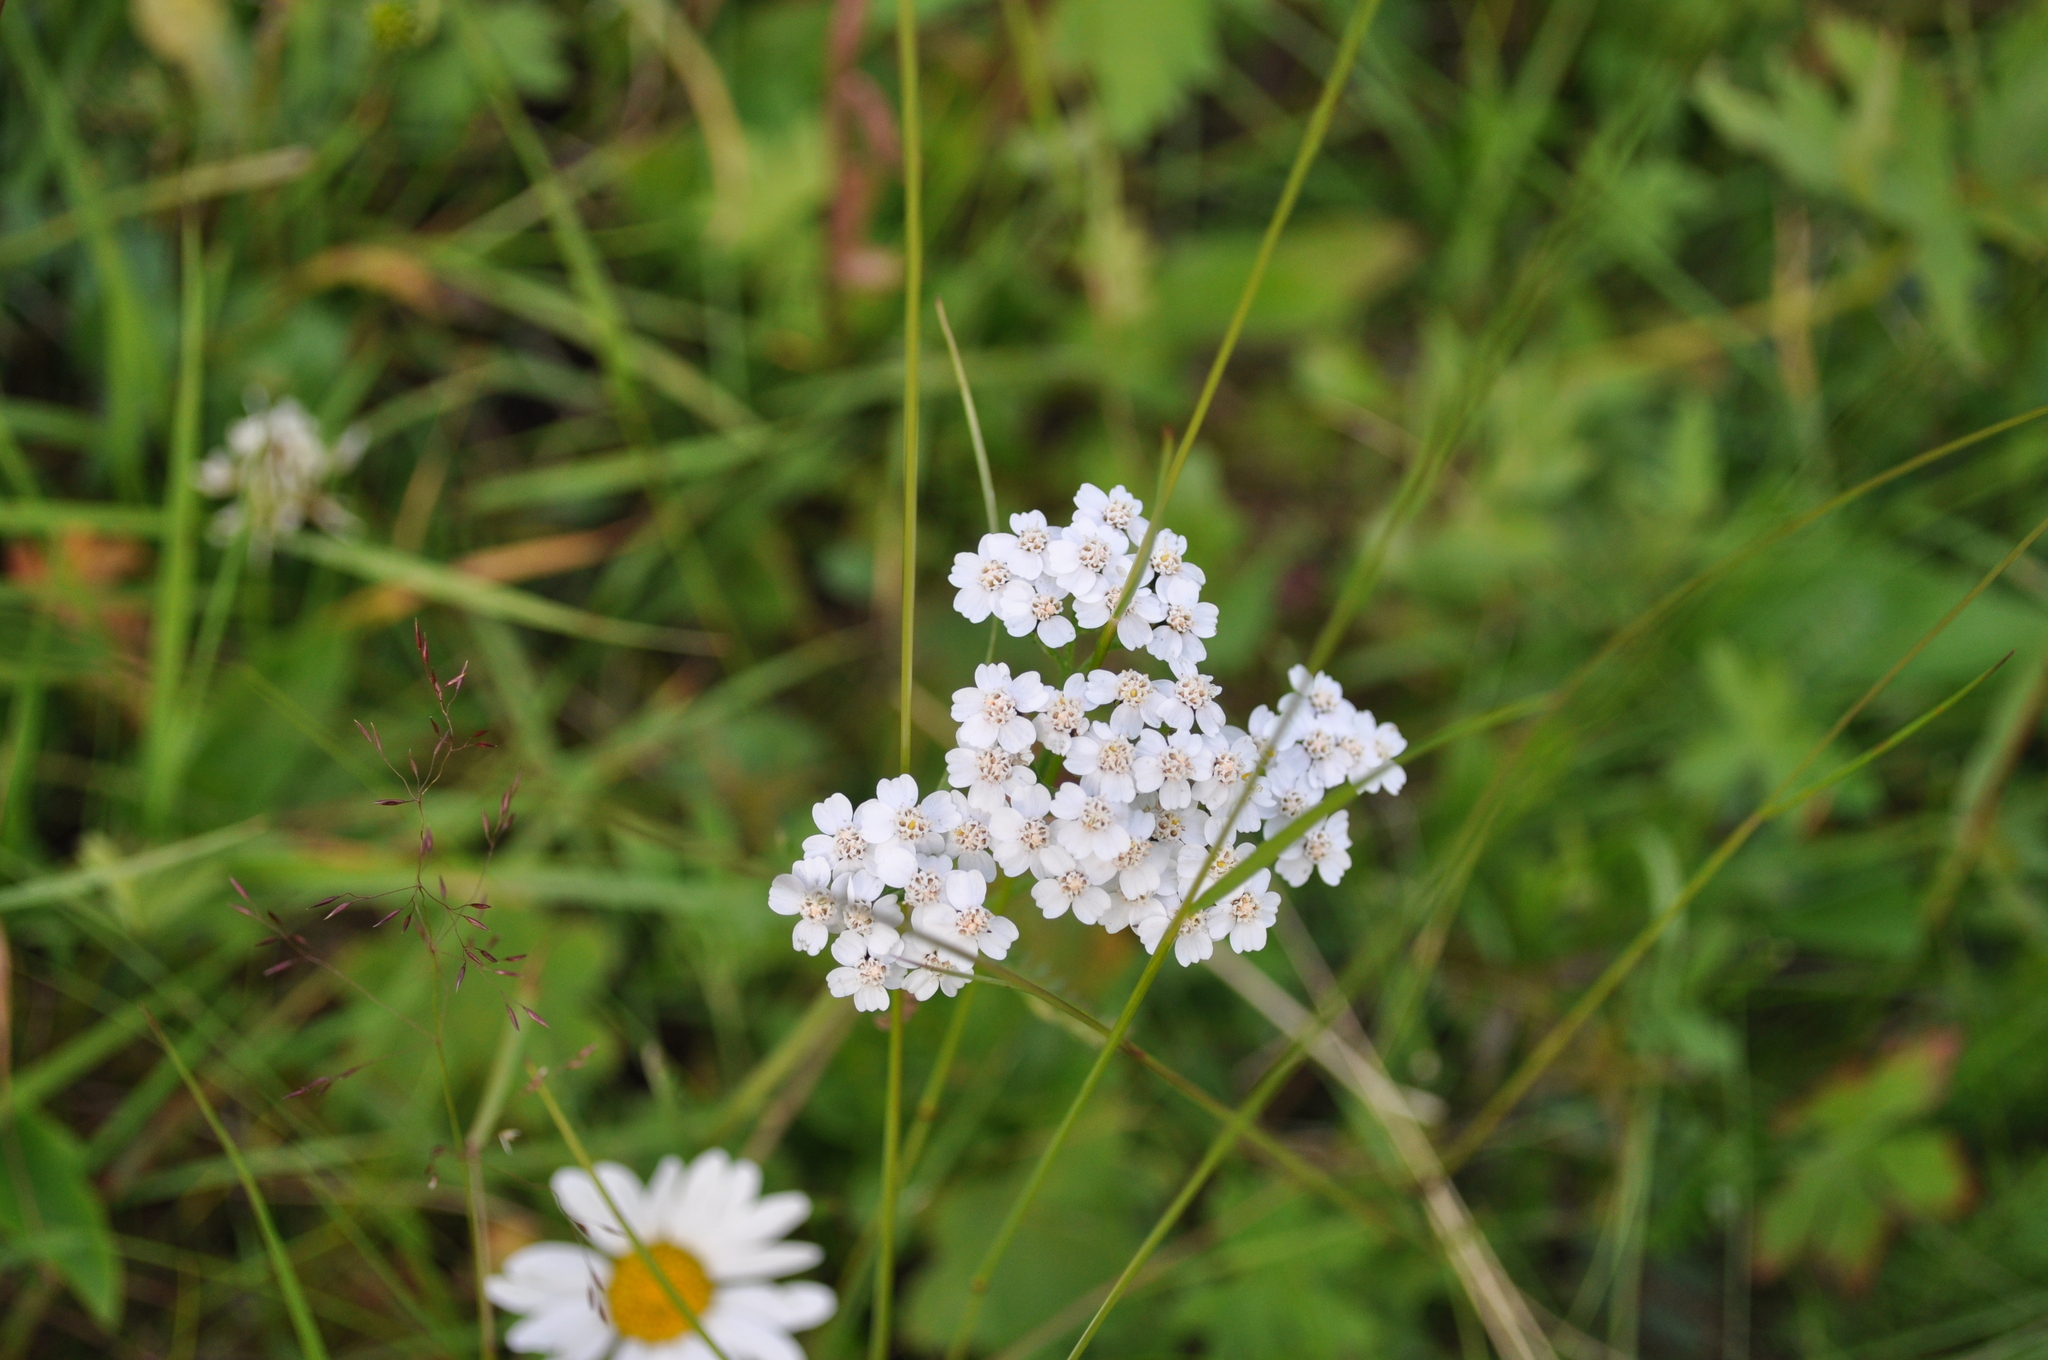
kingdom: Plantae
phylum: Tracheophyta
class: Magnoliopsida
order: Asterales
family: Asteraceae
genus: Achillea
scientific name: Achillea millefolium
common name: Yarrow
